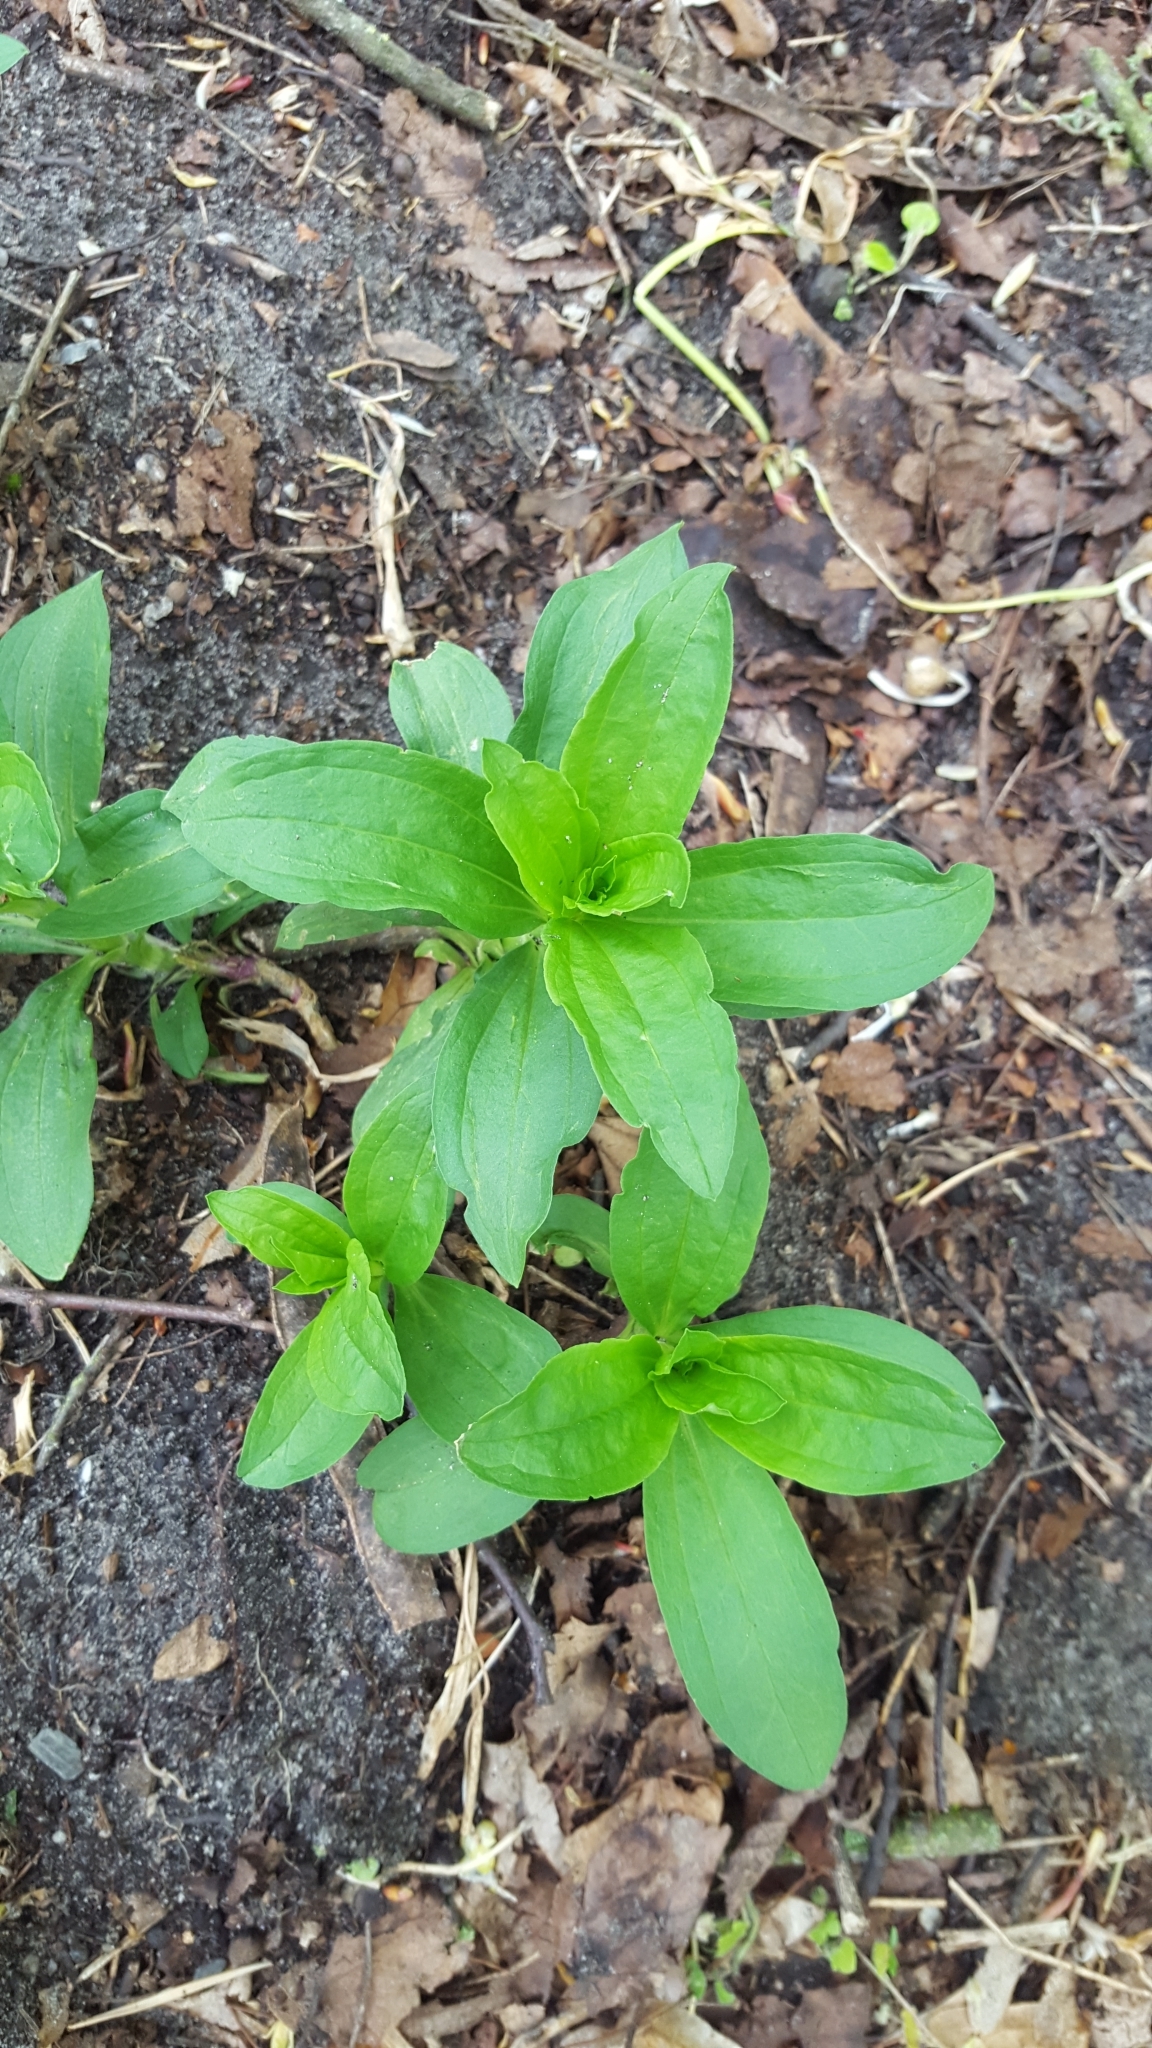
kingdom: Plantae
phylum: Tracheophyta
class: Magnoliopsida
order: Caryophyllales
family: Caryophyllaceae
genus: Saponaria
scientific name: Saponaria officinalis
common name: Soapwort
